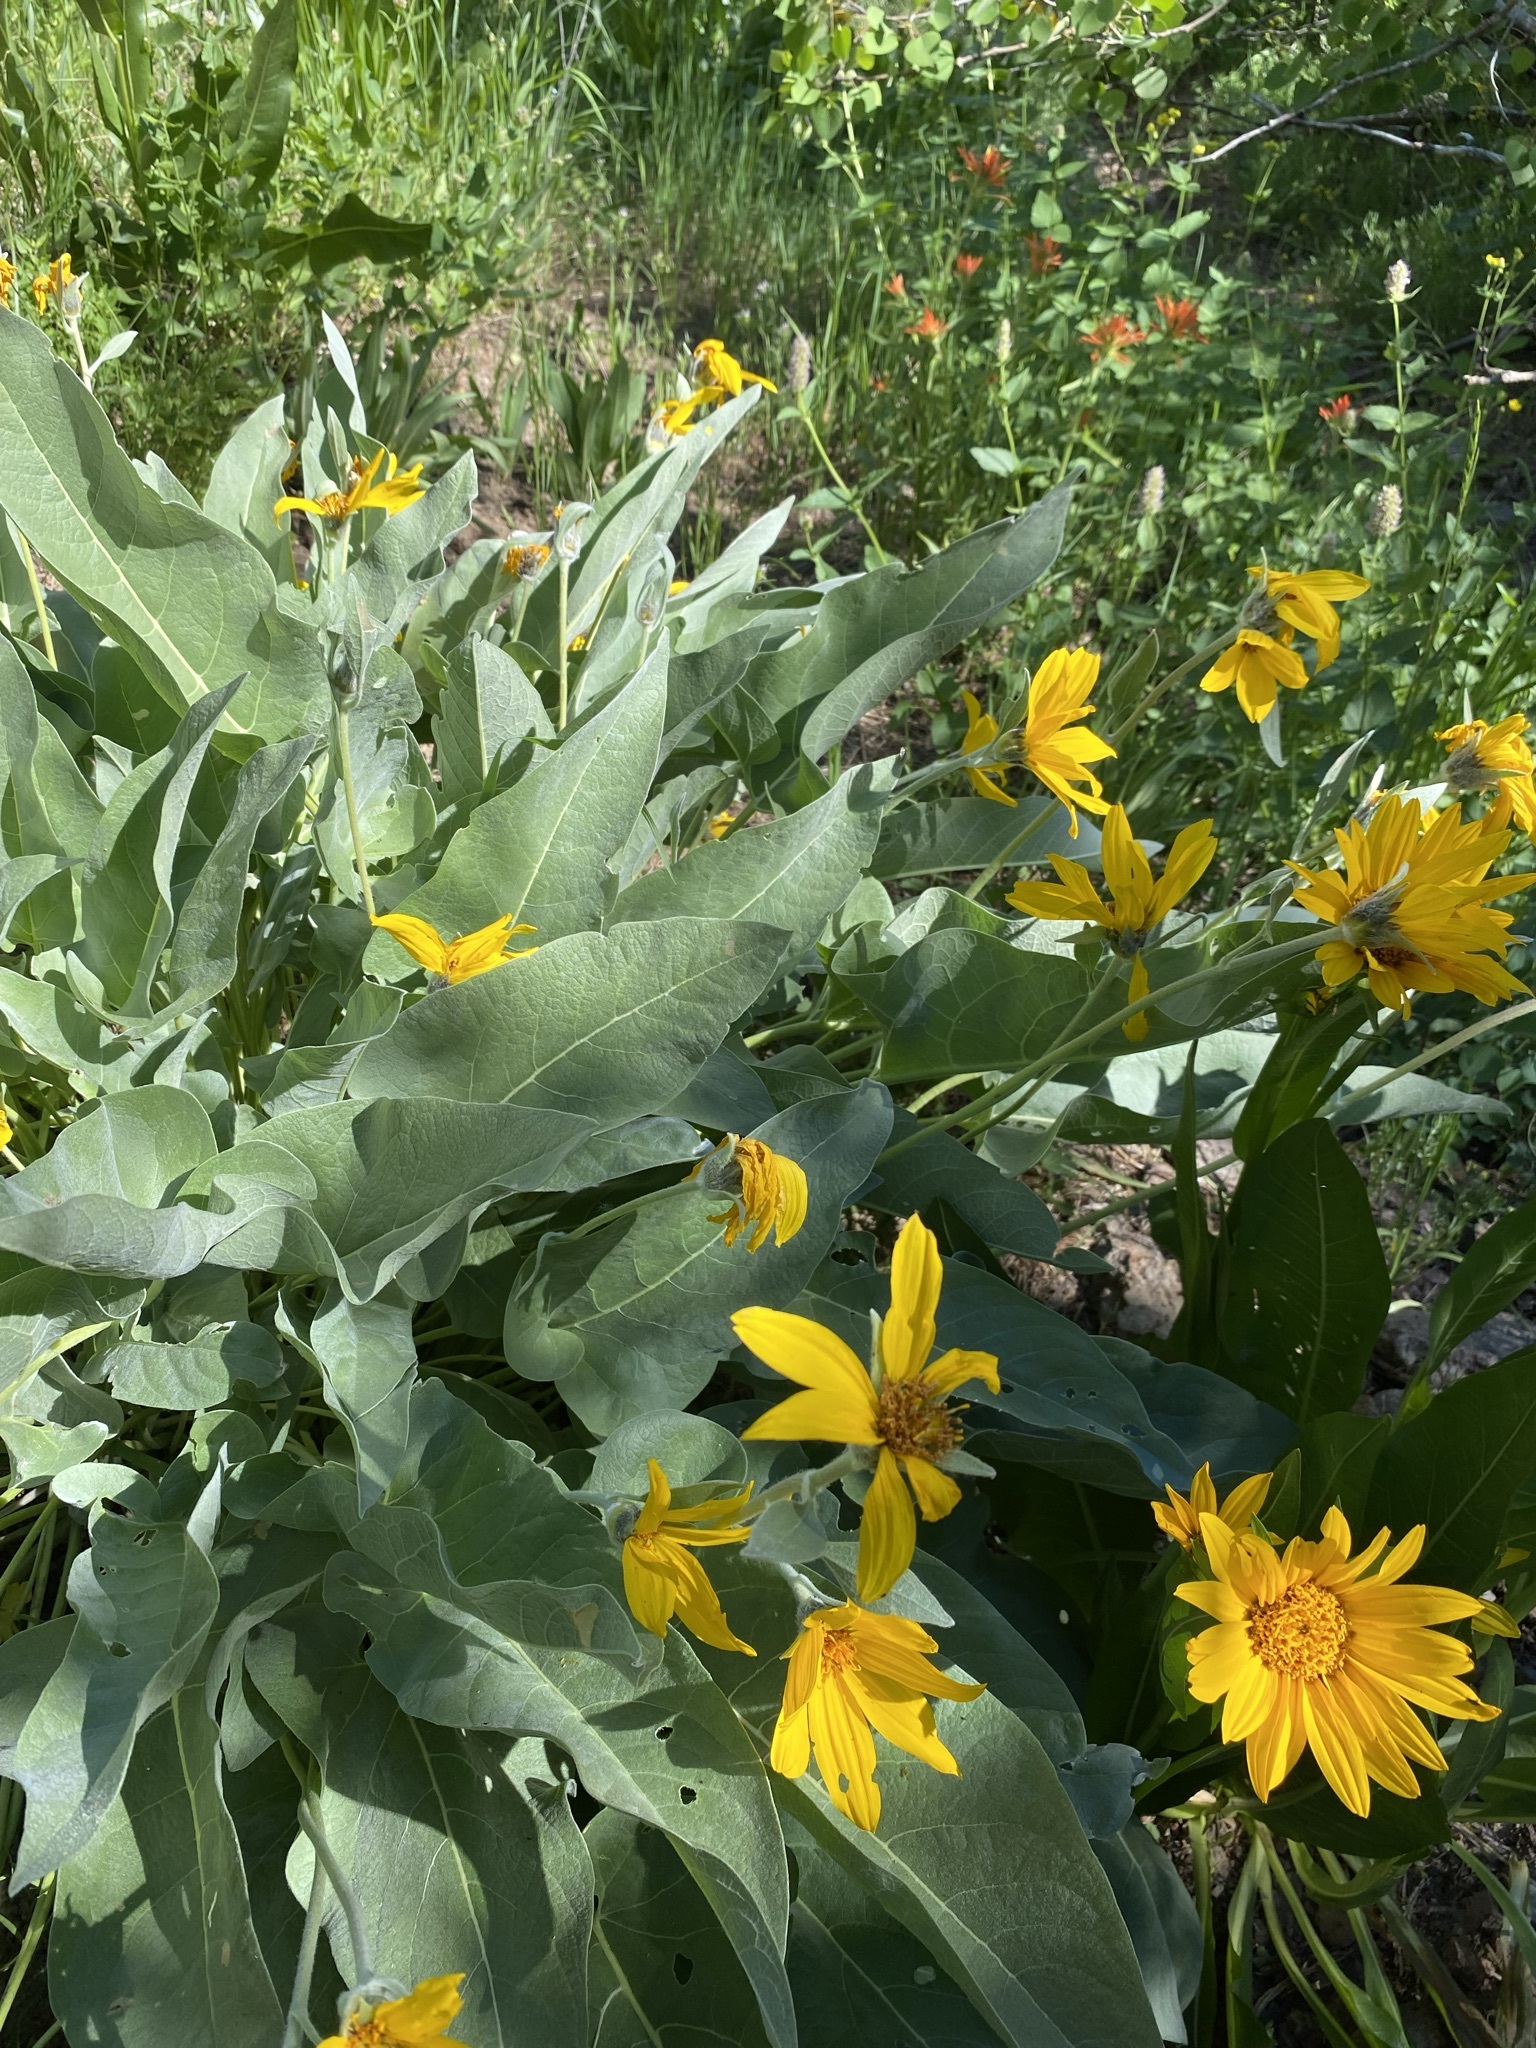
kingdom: Plantae
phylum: Tracheophyta
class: Magnoliopsida
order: Asterales
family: Asteraceae
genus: Wyethia
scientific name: Wyethia sagittata
